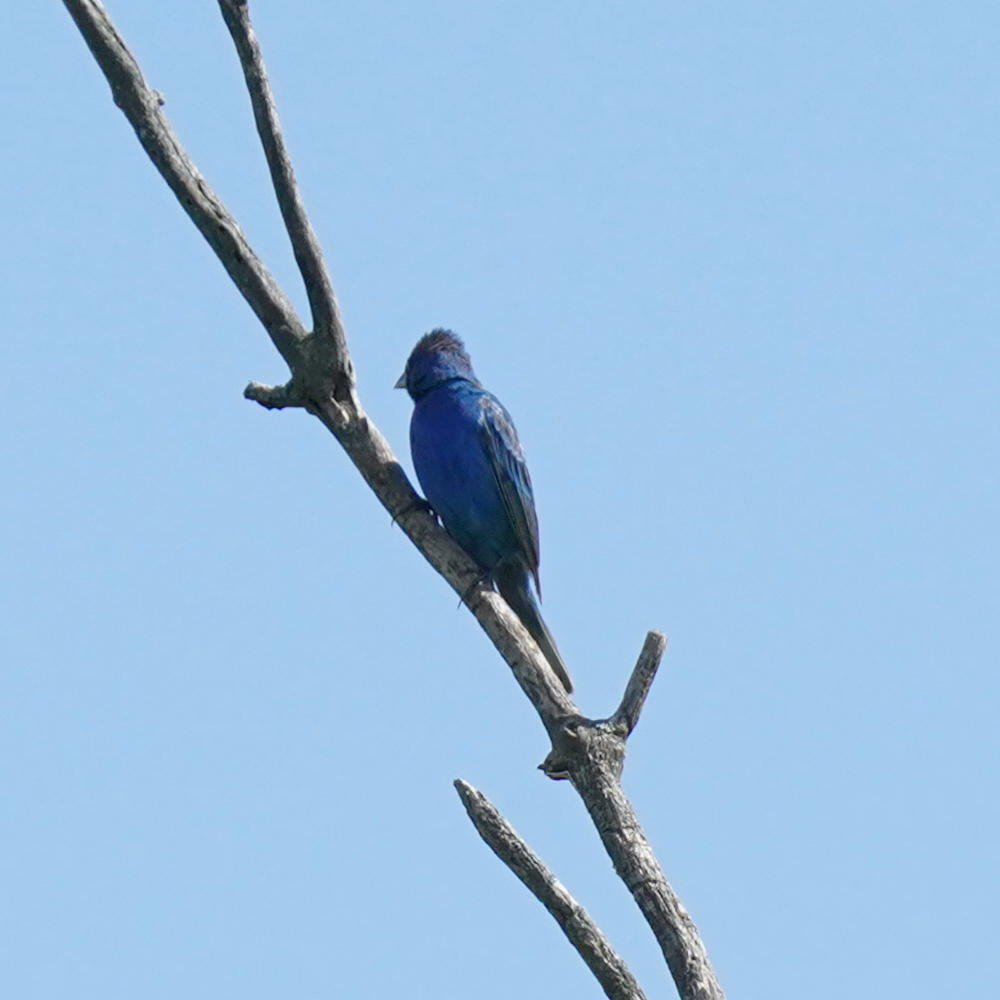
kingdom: Animalia
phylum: Chordata
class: Aves
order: Passeriformes
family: Cardinalidae
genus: Passerina
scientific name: Passerina cyanea
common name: Indigo bunting
